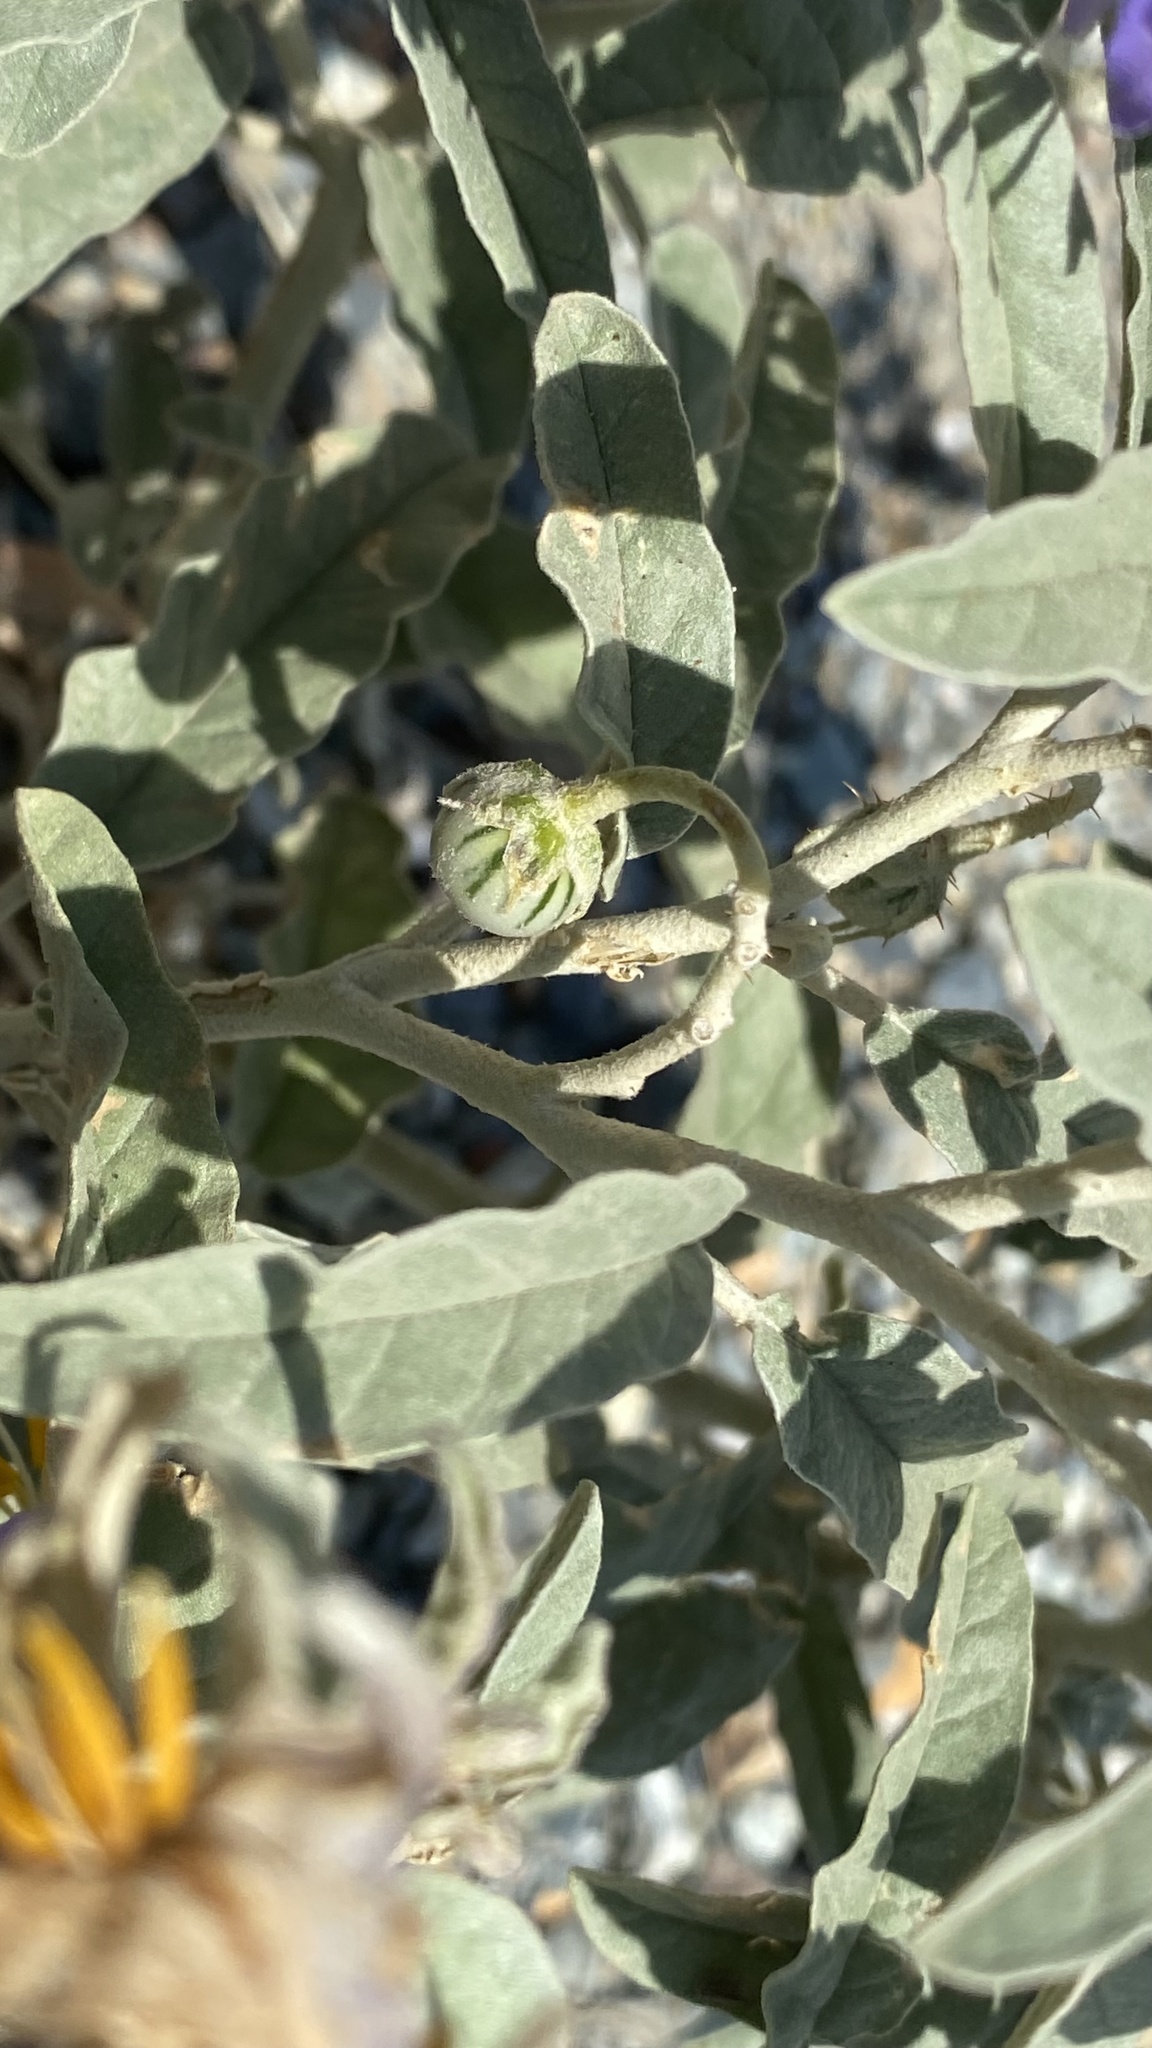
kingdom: Plantae
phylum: Tracheophyta
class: Magnoliopsida
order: Solanales
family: Solanaceae
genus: Solanum
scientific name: Solanum elaeagnifolium
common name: Silverleaf nightshade
